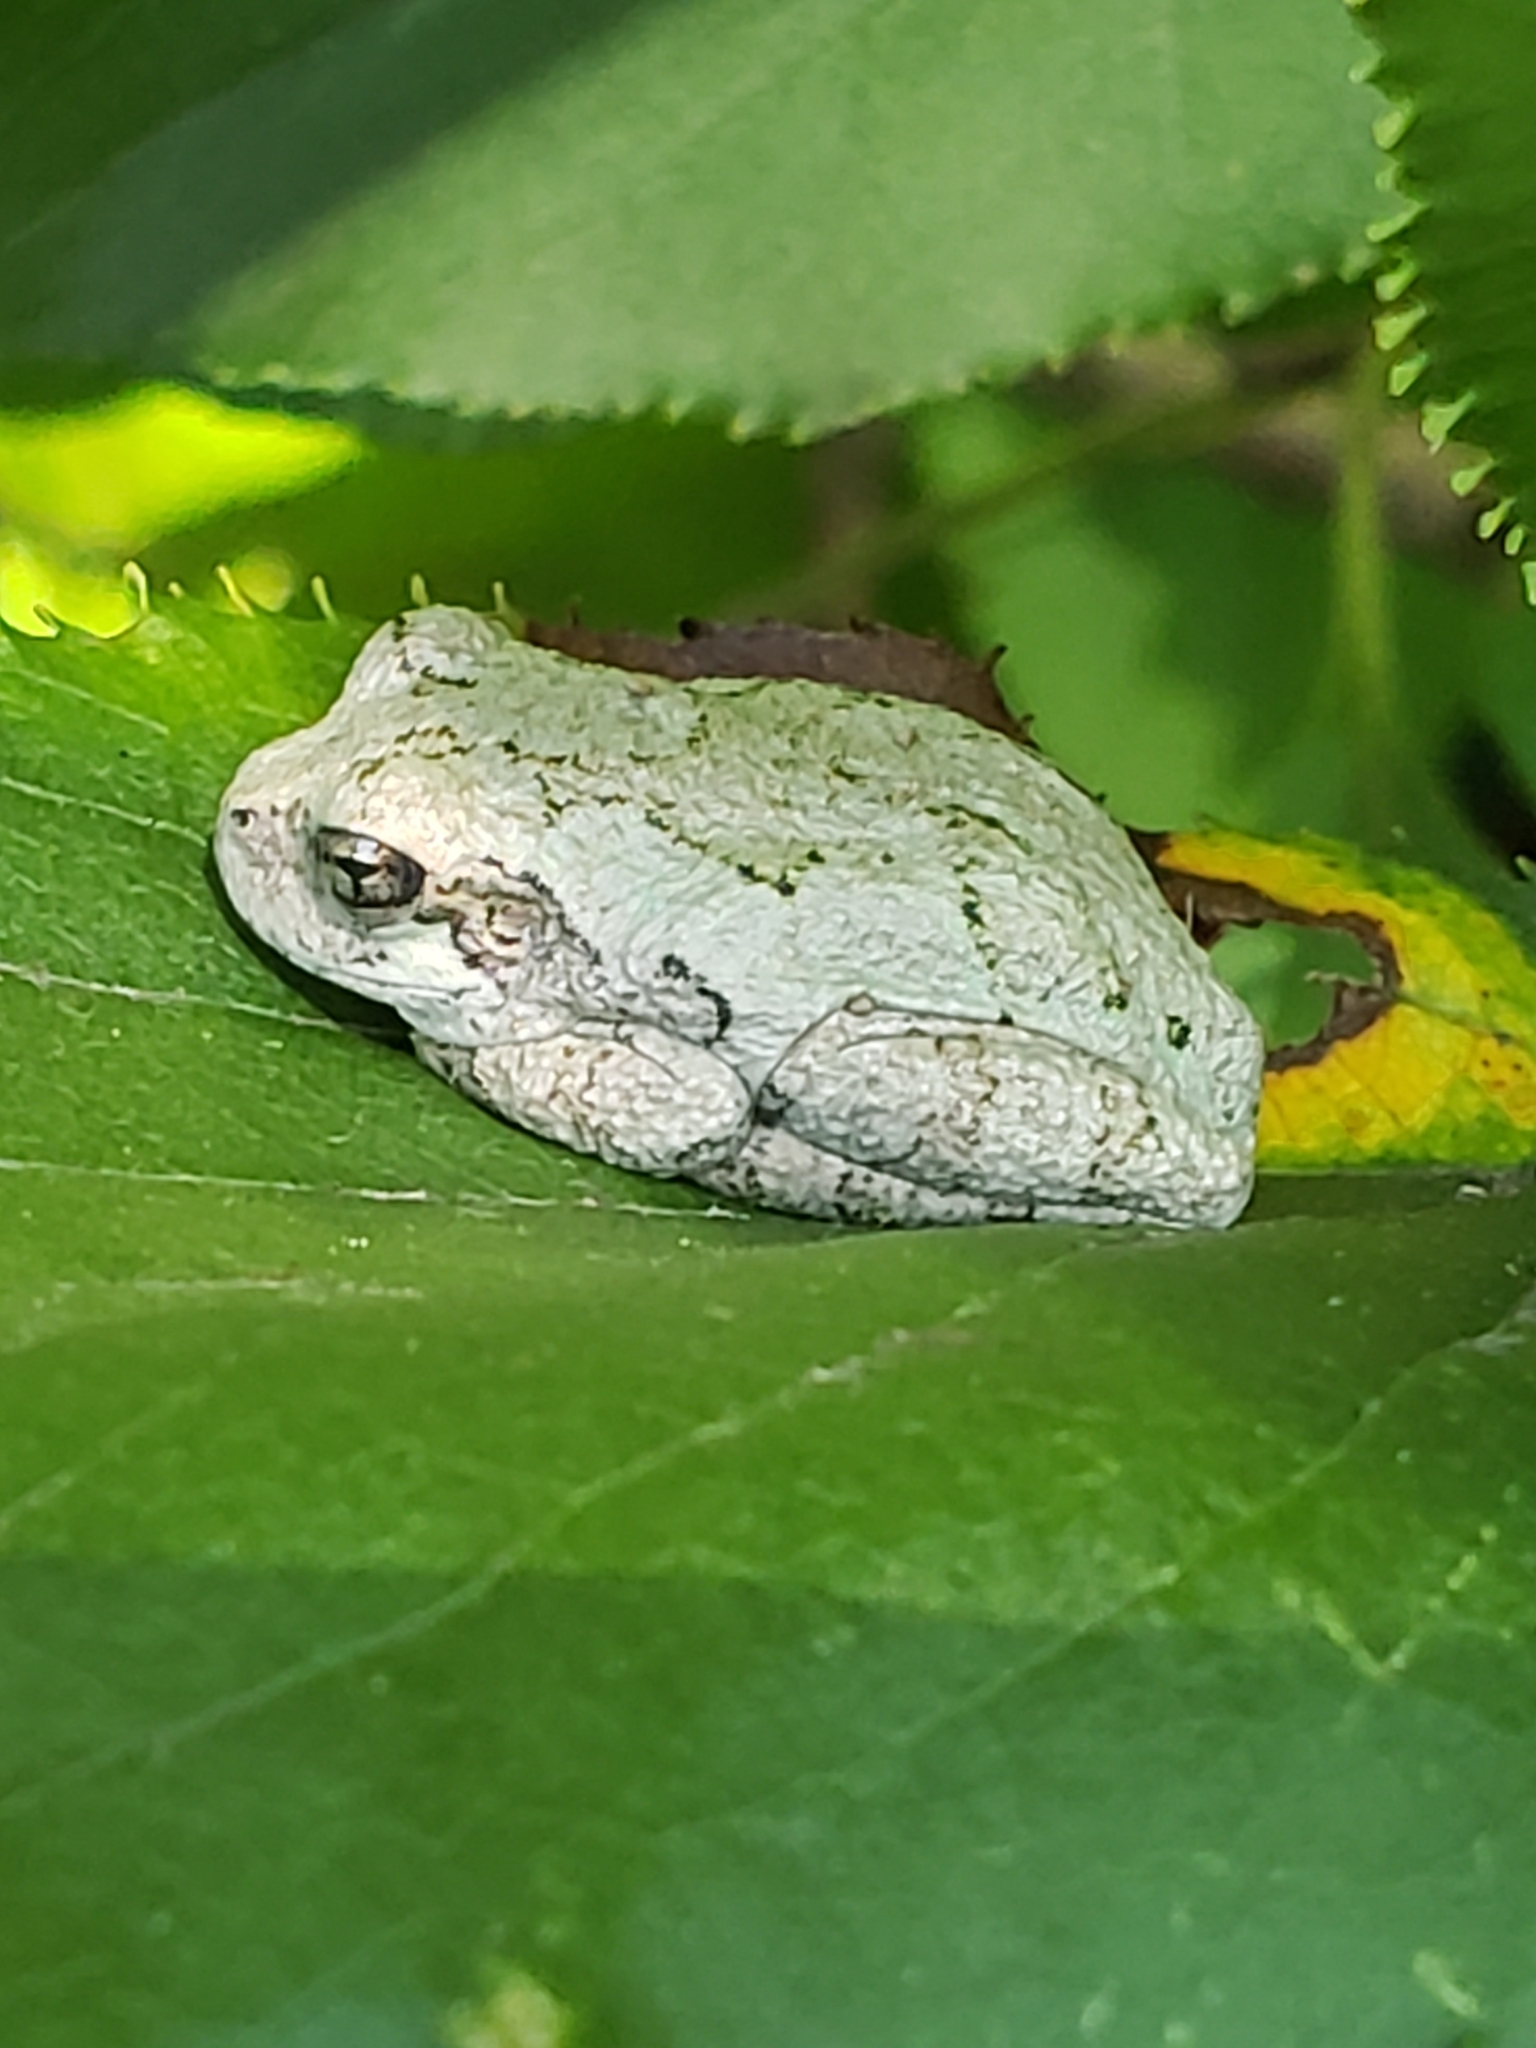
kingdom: Animalia
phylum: Chordata
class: Amphibia
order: Anura
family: Hylidae
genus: Hyla
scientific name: Hyla
